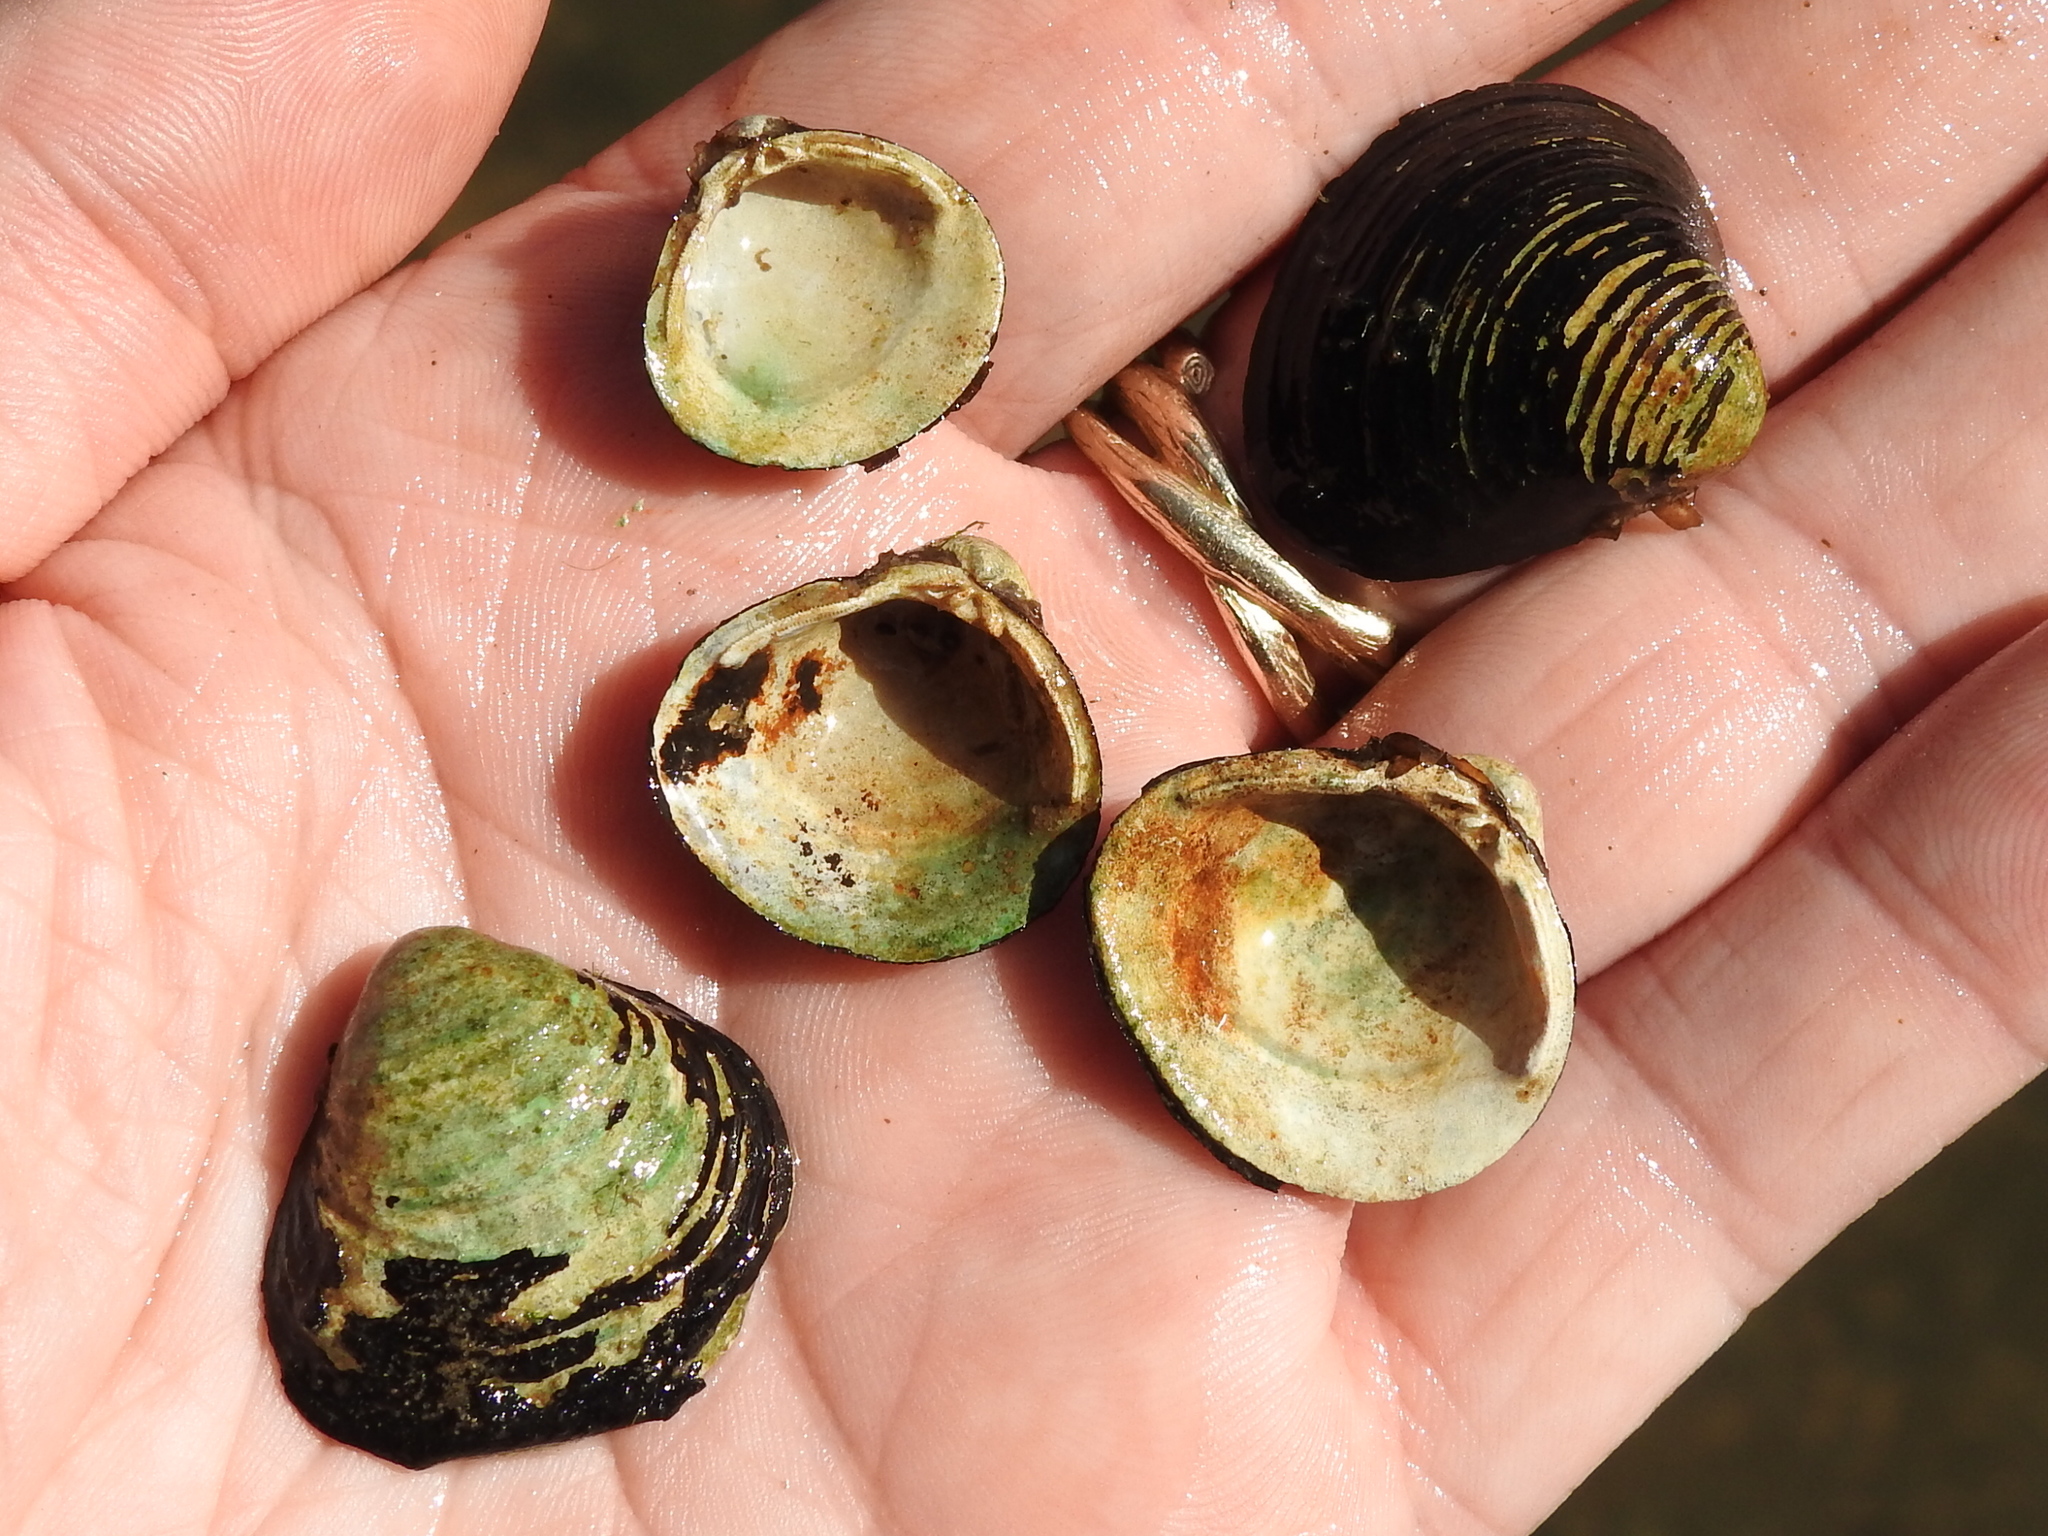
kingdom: Animalia
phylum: Mollusca
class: Bivalvia
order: Venerida
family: Cyrenidae
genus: Corbicula
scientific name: Corbicula fluminea
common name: Asian clam
